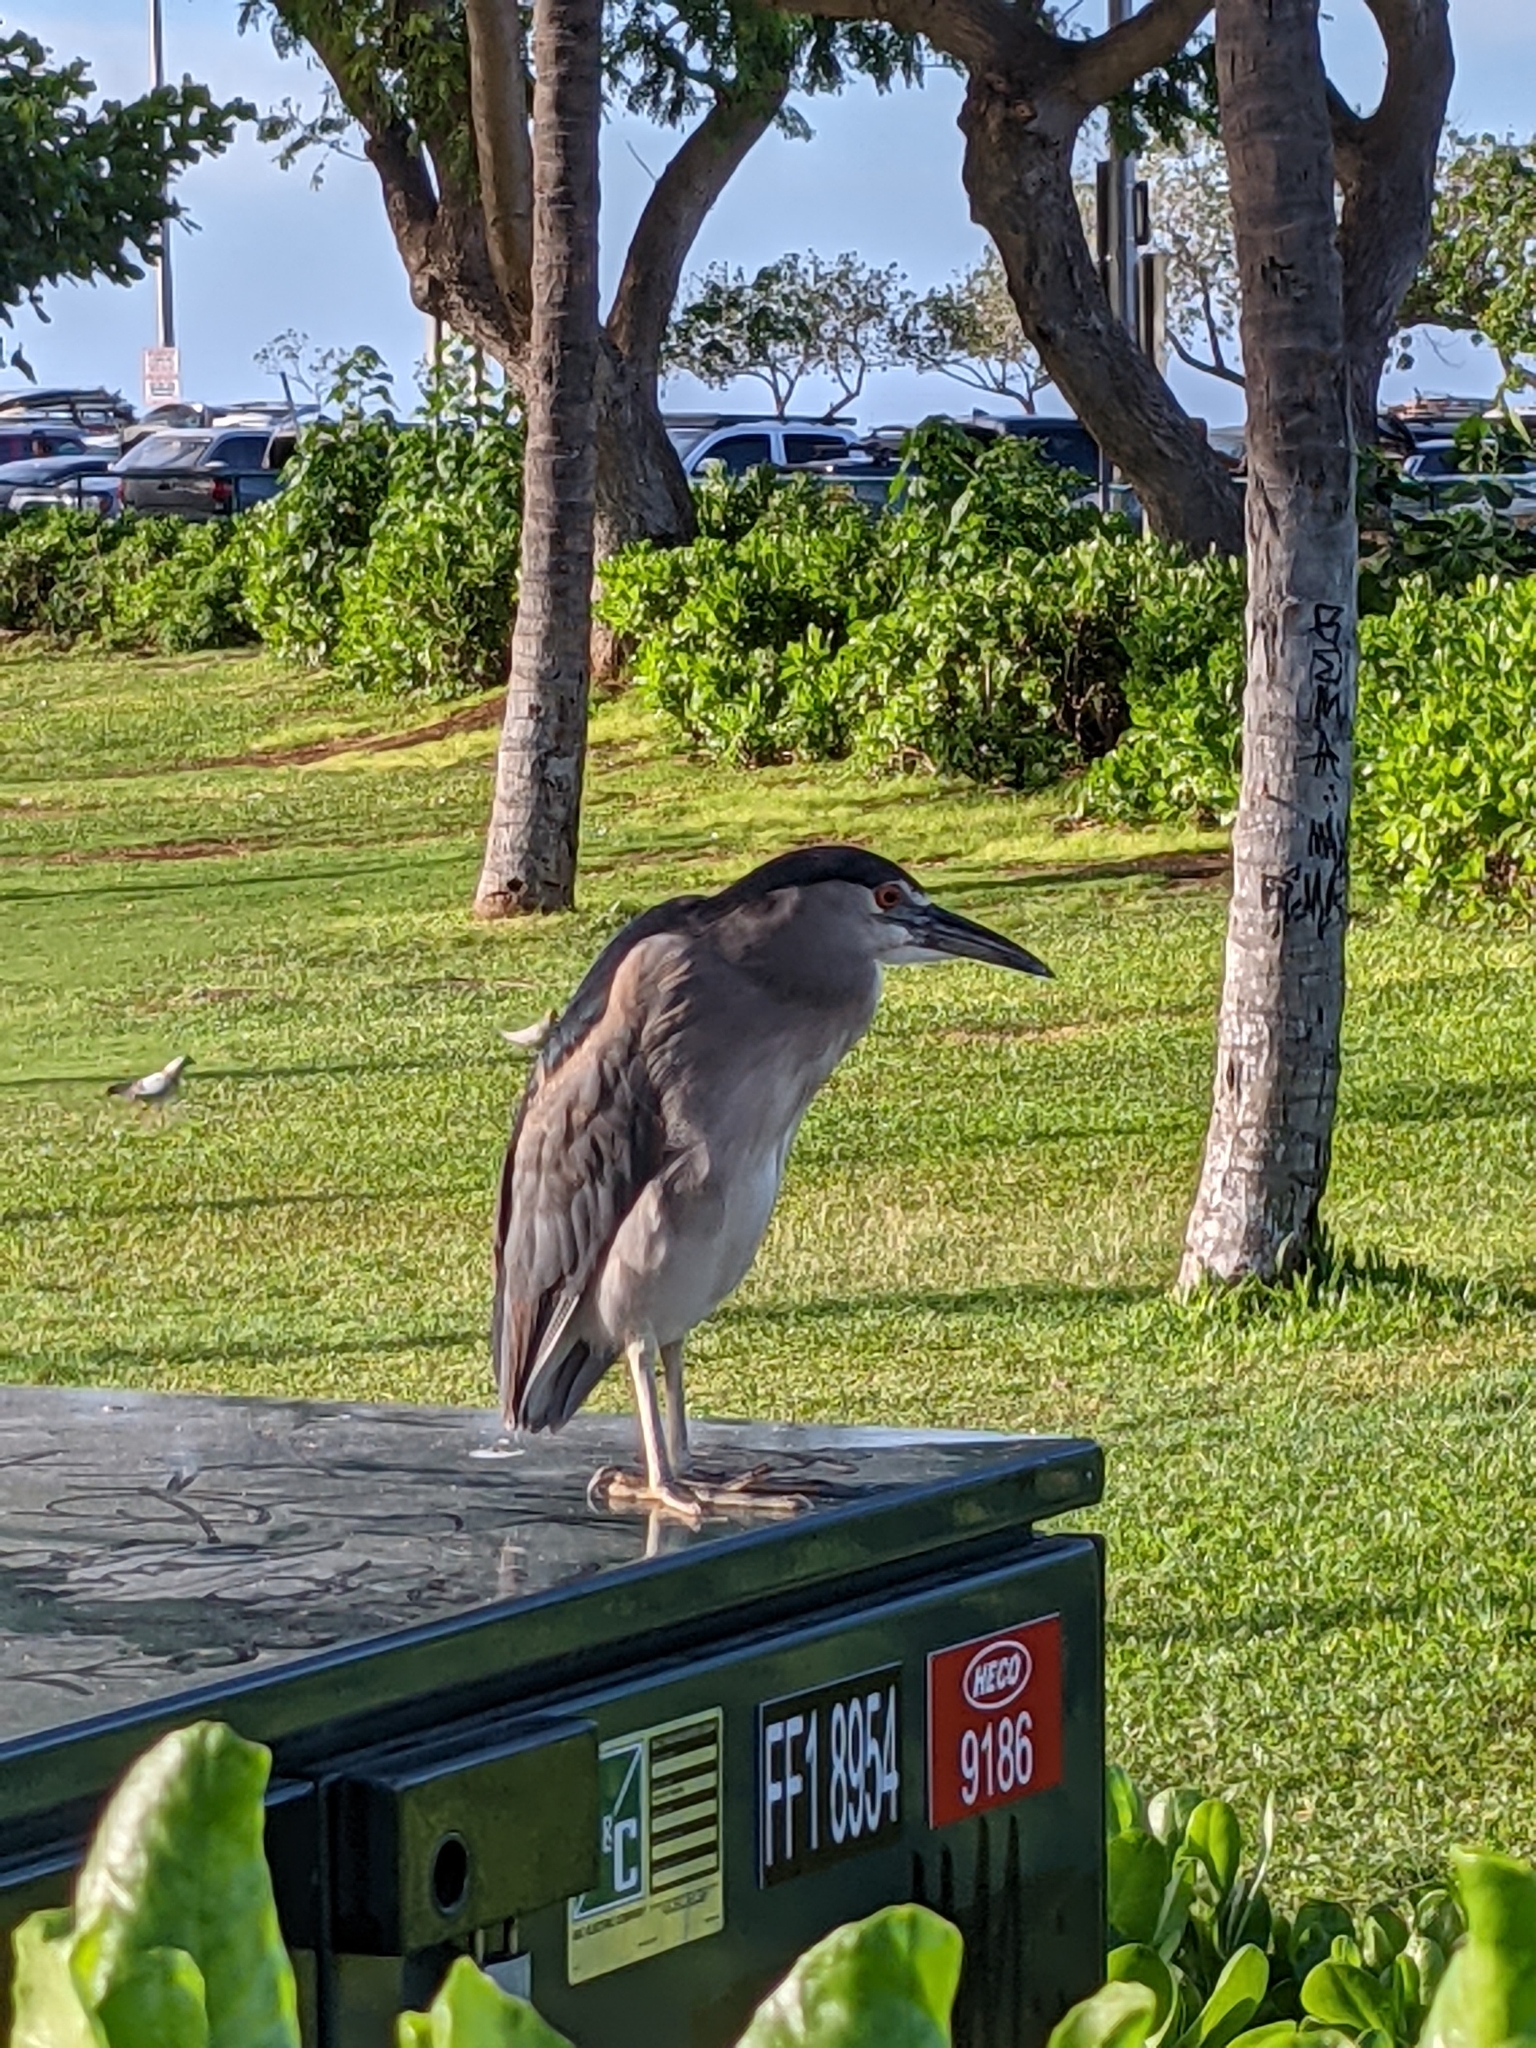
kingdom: Animalia
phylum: Chordata
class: Aves
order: Pelecaniformes
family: Ardeidae
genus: Nycticorax
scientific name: Nycticorax nycticorax
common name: Black-crowned night heron
